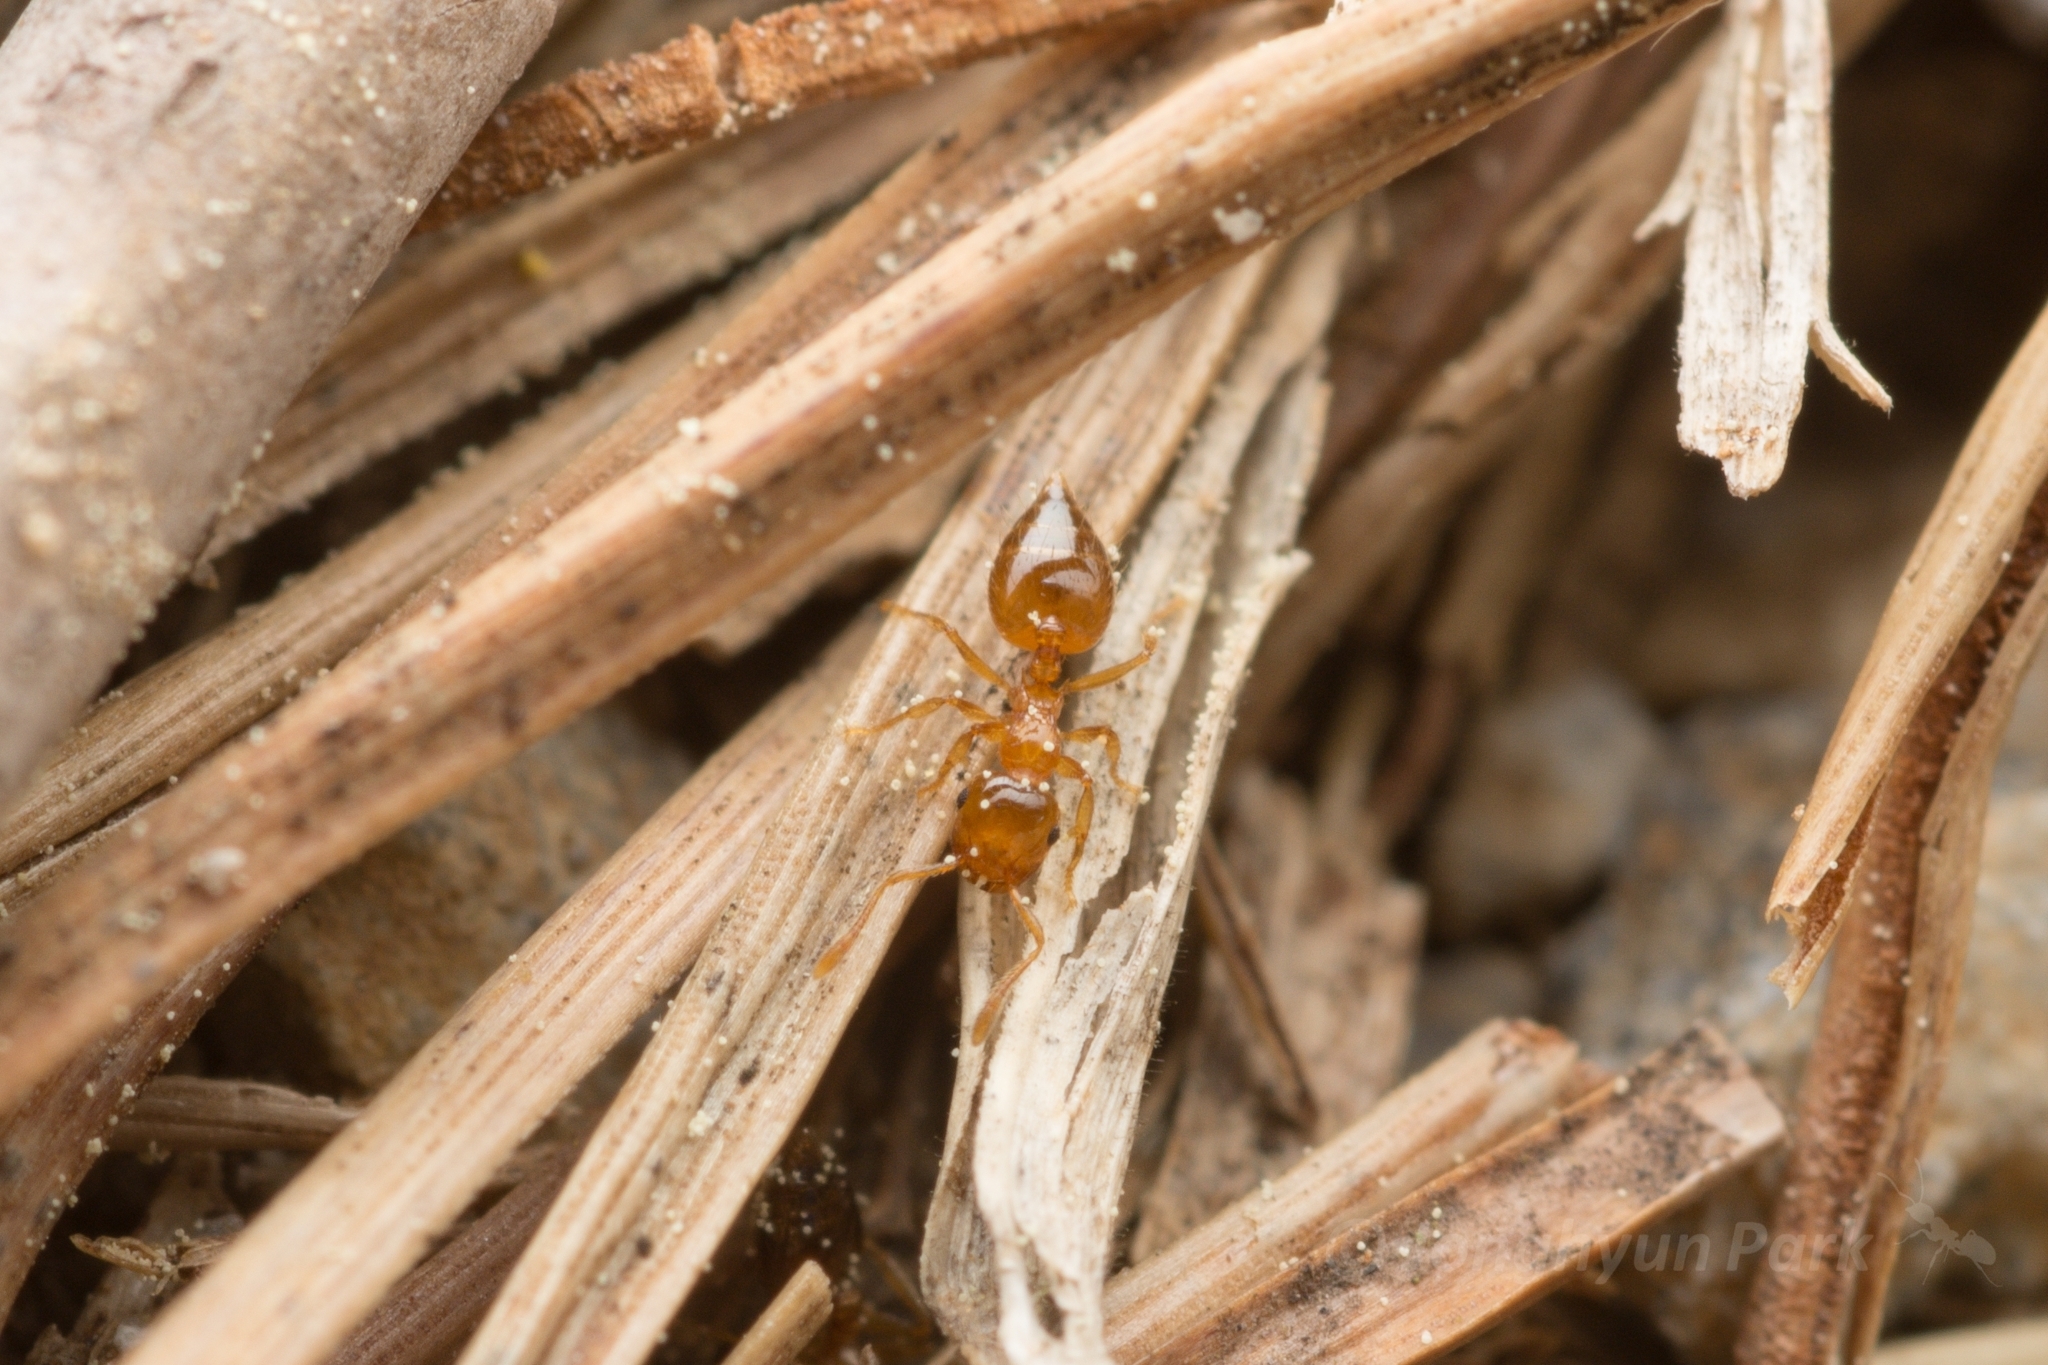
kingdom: Animalia
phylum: Arthropoda
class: Insecta
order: Hymenoptera
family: Formicidae
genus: Crematogaster
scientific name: Crematogaster osakensis
